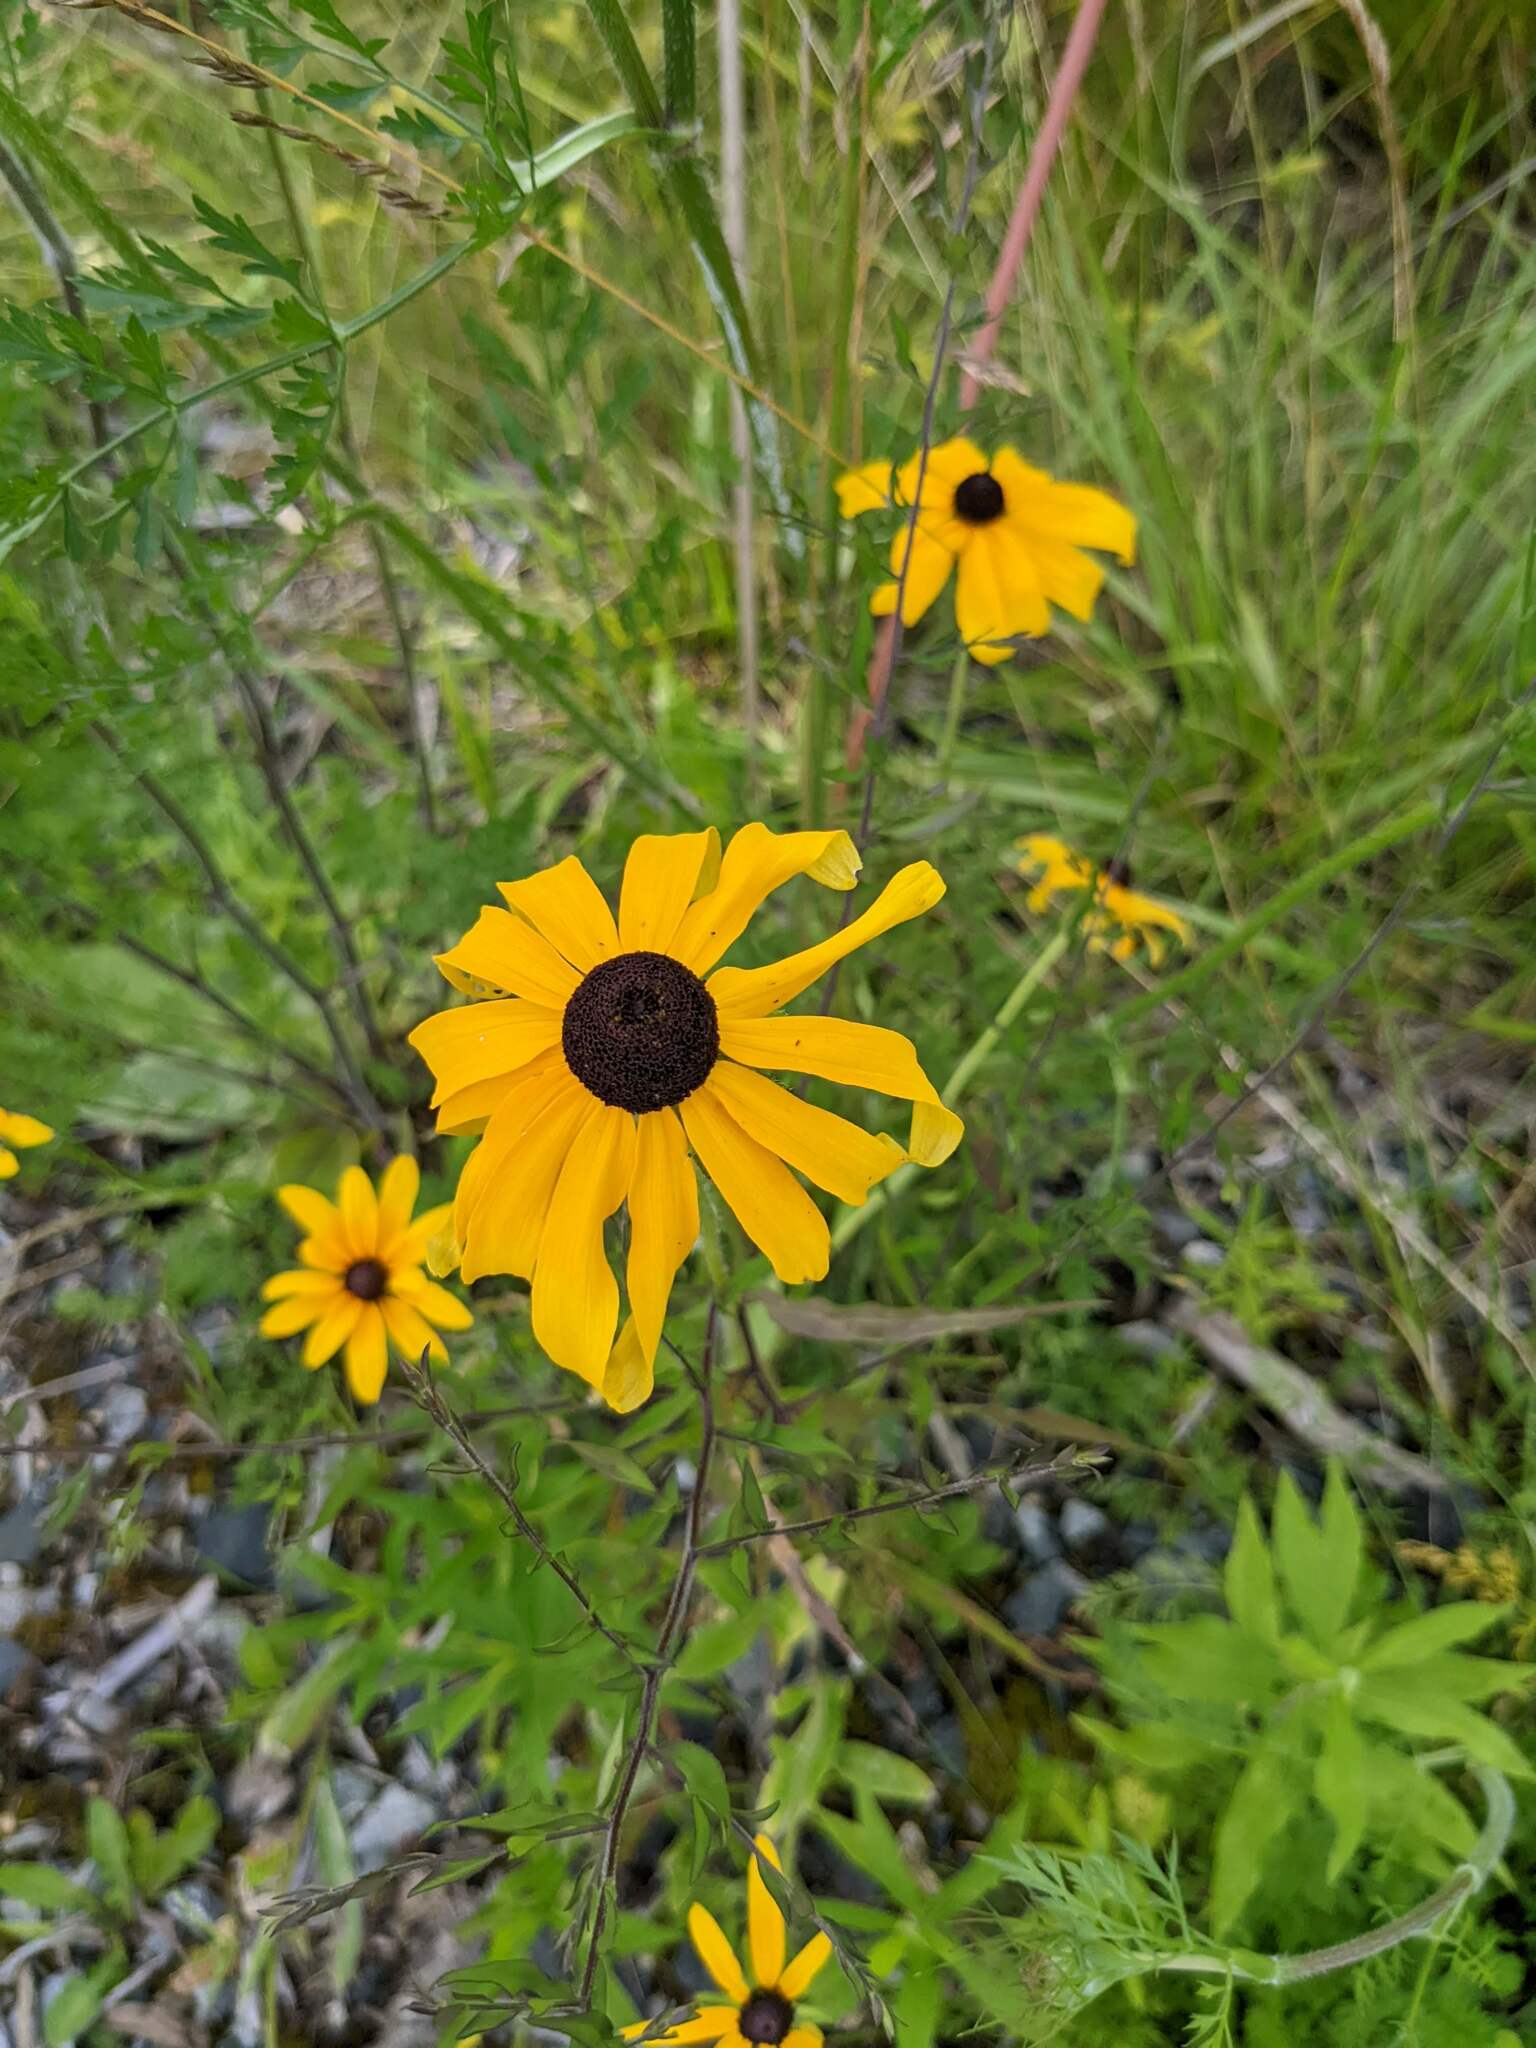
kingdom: Plantae
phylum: Tracheophyta
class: Magnoliopsida
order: Asterales
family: Asteraceae
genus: Rudbeckia
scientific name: Rudbeckia hirta
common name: Black-eyed-susan
